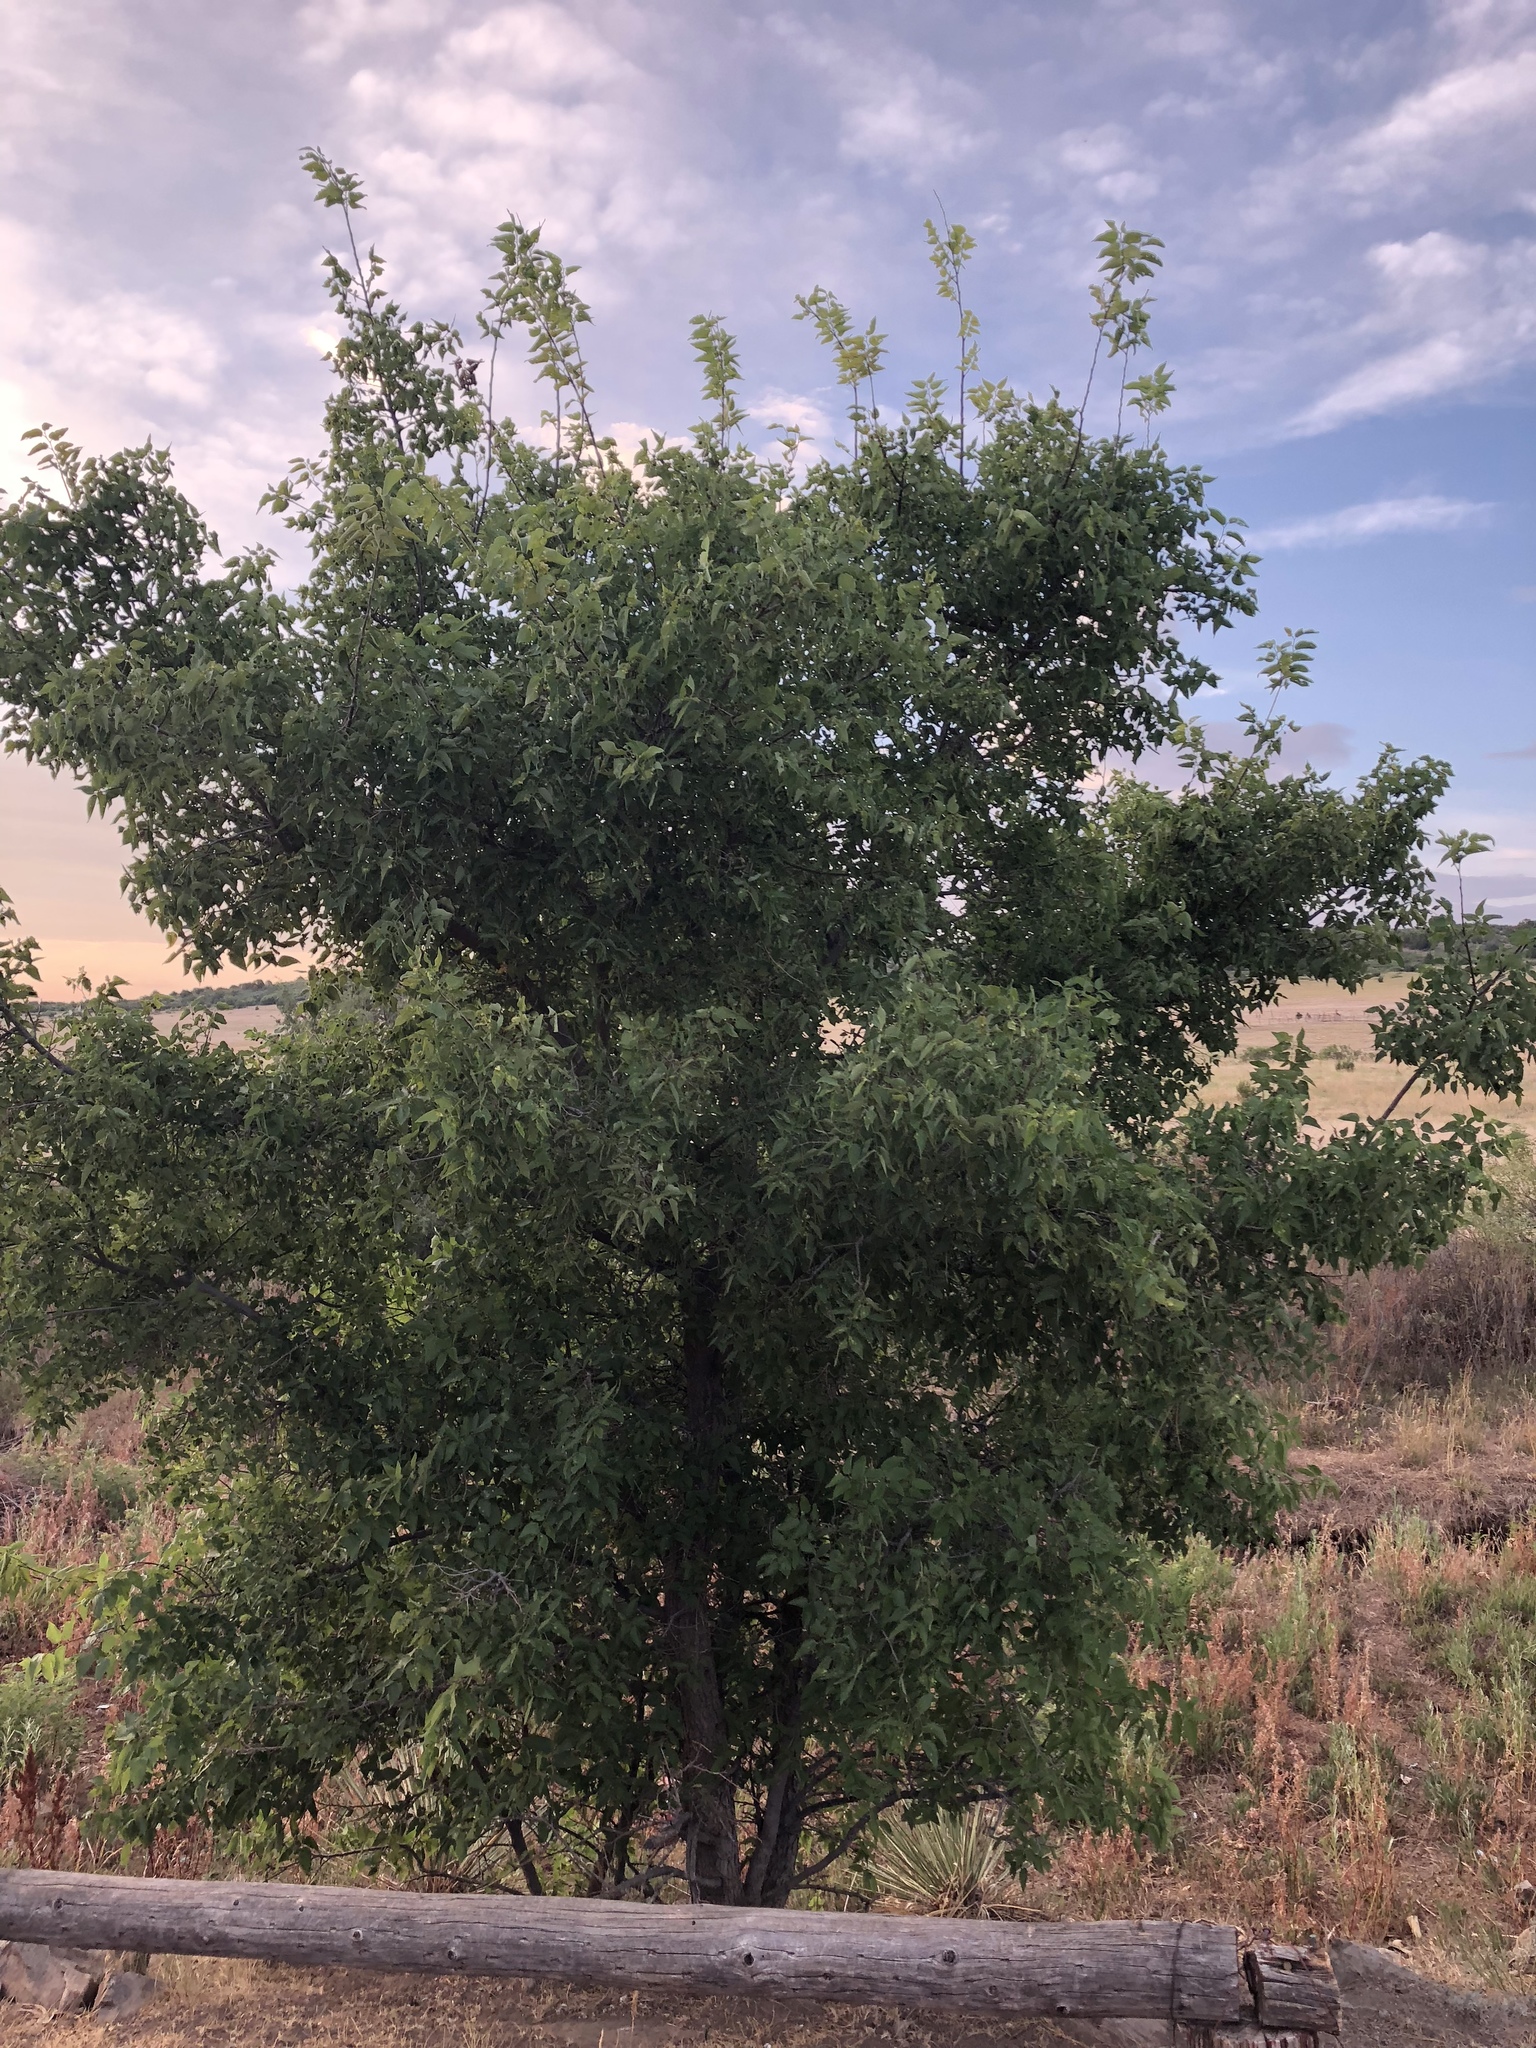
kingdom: Plantae
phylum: Tracheophyta
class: Magnoliopsida
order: Rosales
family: Cannabaceae
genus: Celtis
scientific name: Celtis reticulata
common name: Netleaf hackberry
